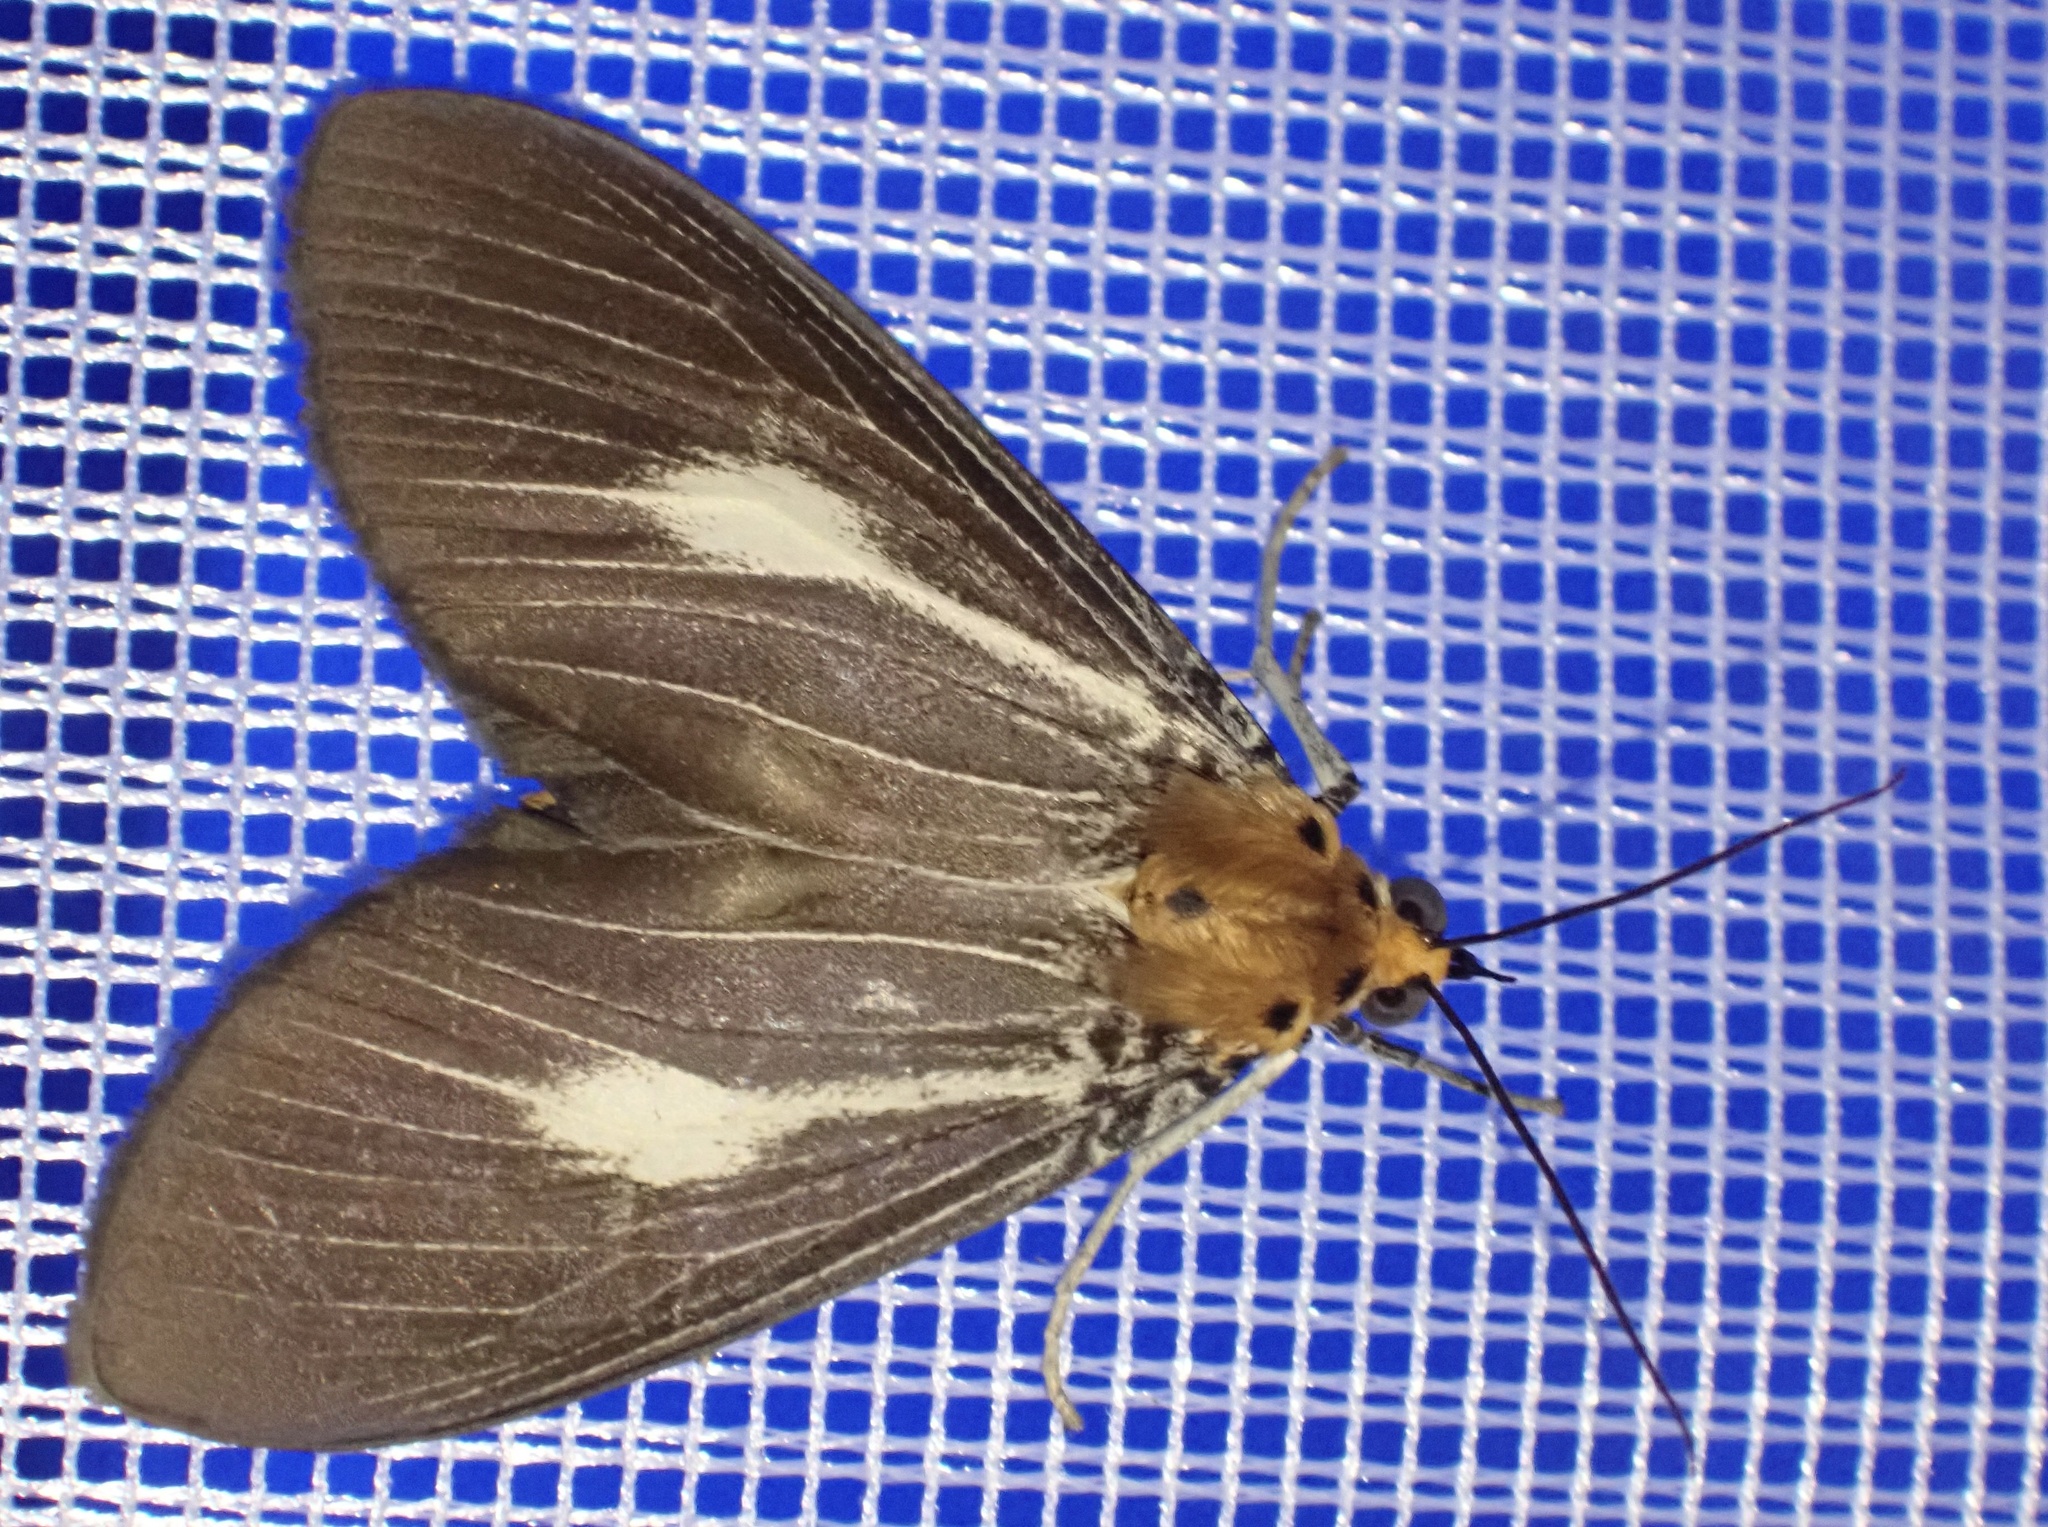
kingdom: Animalia
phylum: Arthropoda
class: Insecta
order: Lepidoptera
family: Erebidae
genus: Asota
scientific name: Asota heliconia
